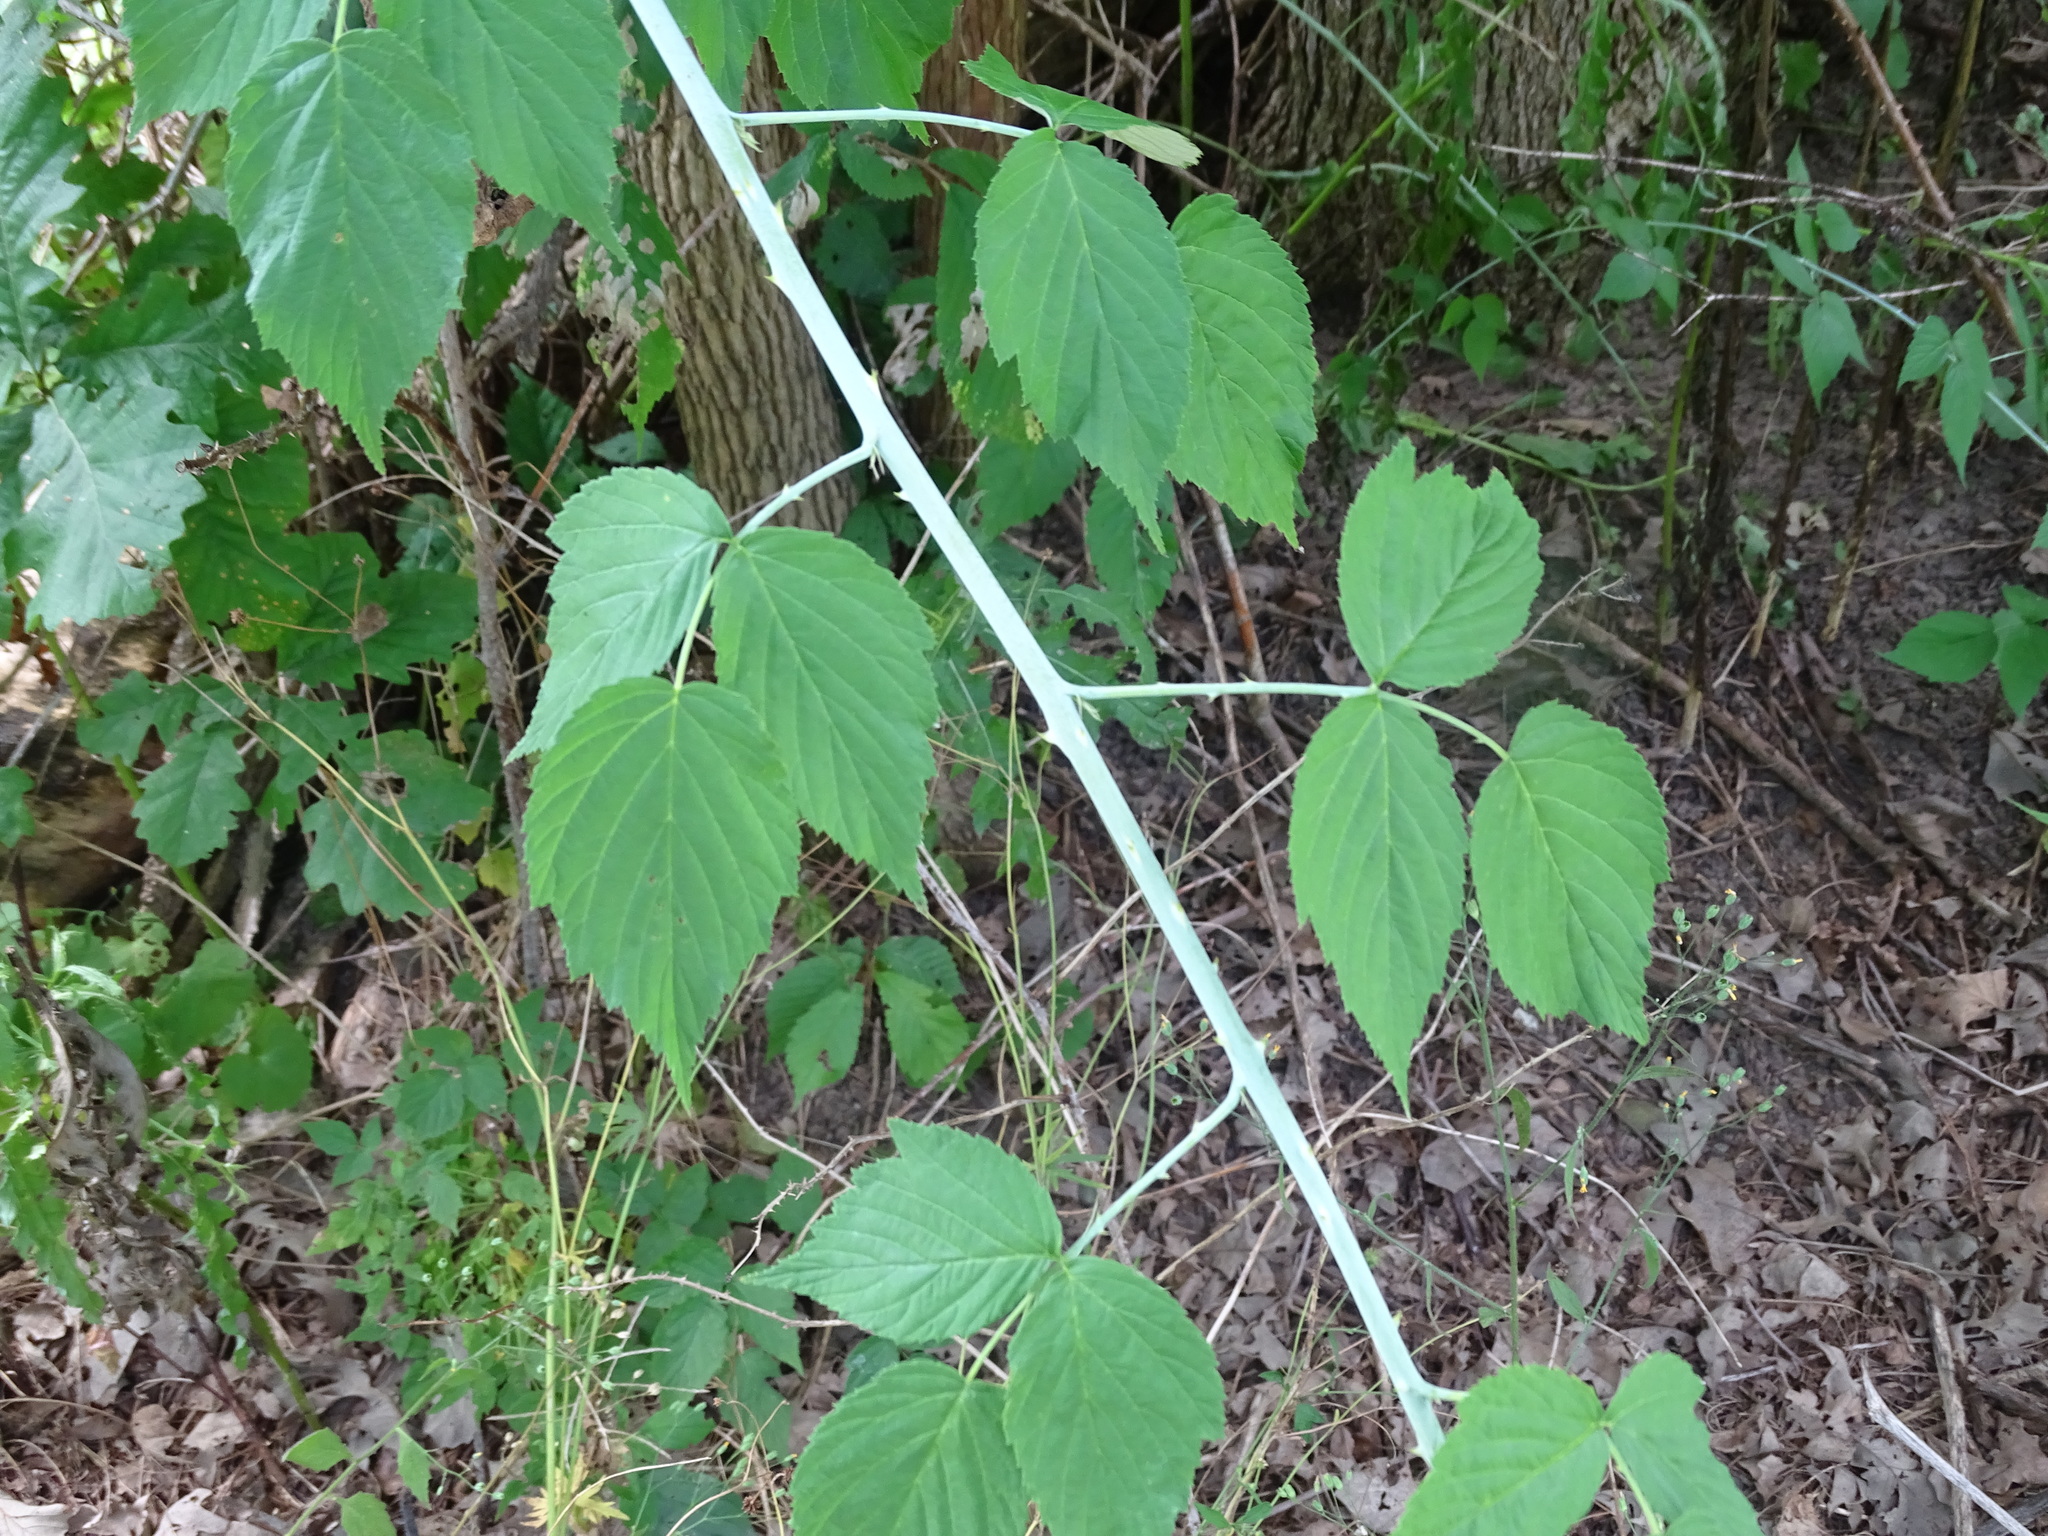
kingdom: Plantae
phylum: Tracheophyta
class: Magnoliopsida
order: Rosales
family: Rosaceae
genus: Rubus
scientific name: Rubus occidentalis
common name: Black raspberry
